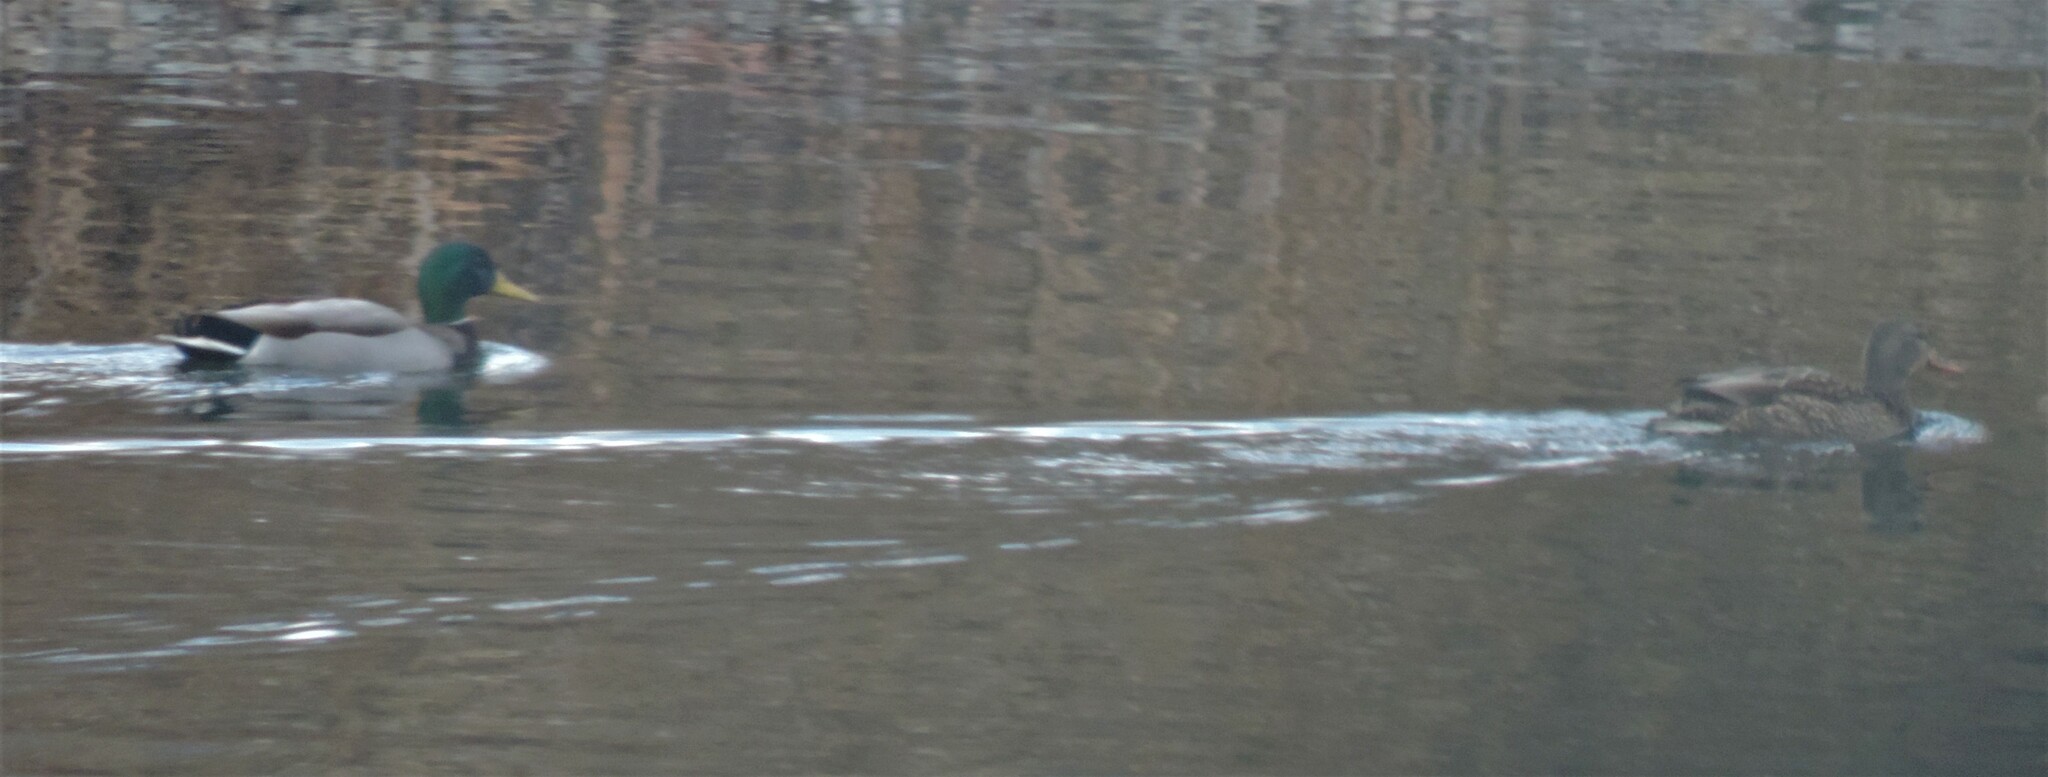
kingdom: Animalia
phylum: Chordata
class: Aves
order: Anseriformes
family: Anatidae
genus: Anas
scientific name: Anas platyrhynchos
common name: Mallard
